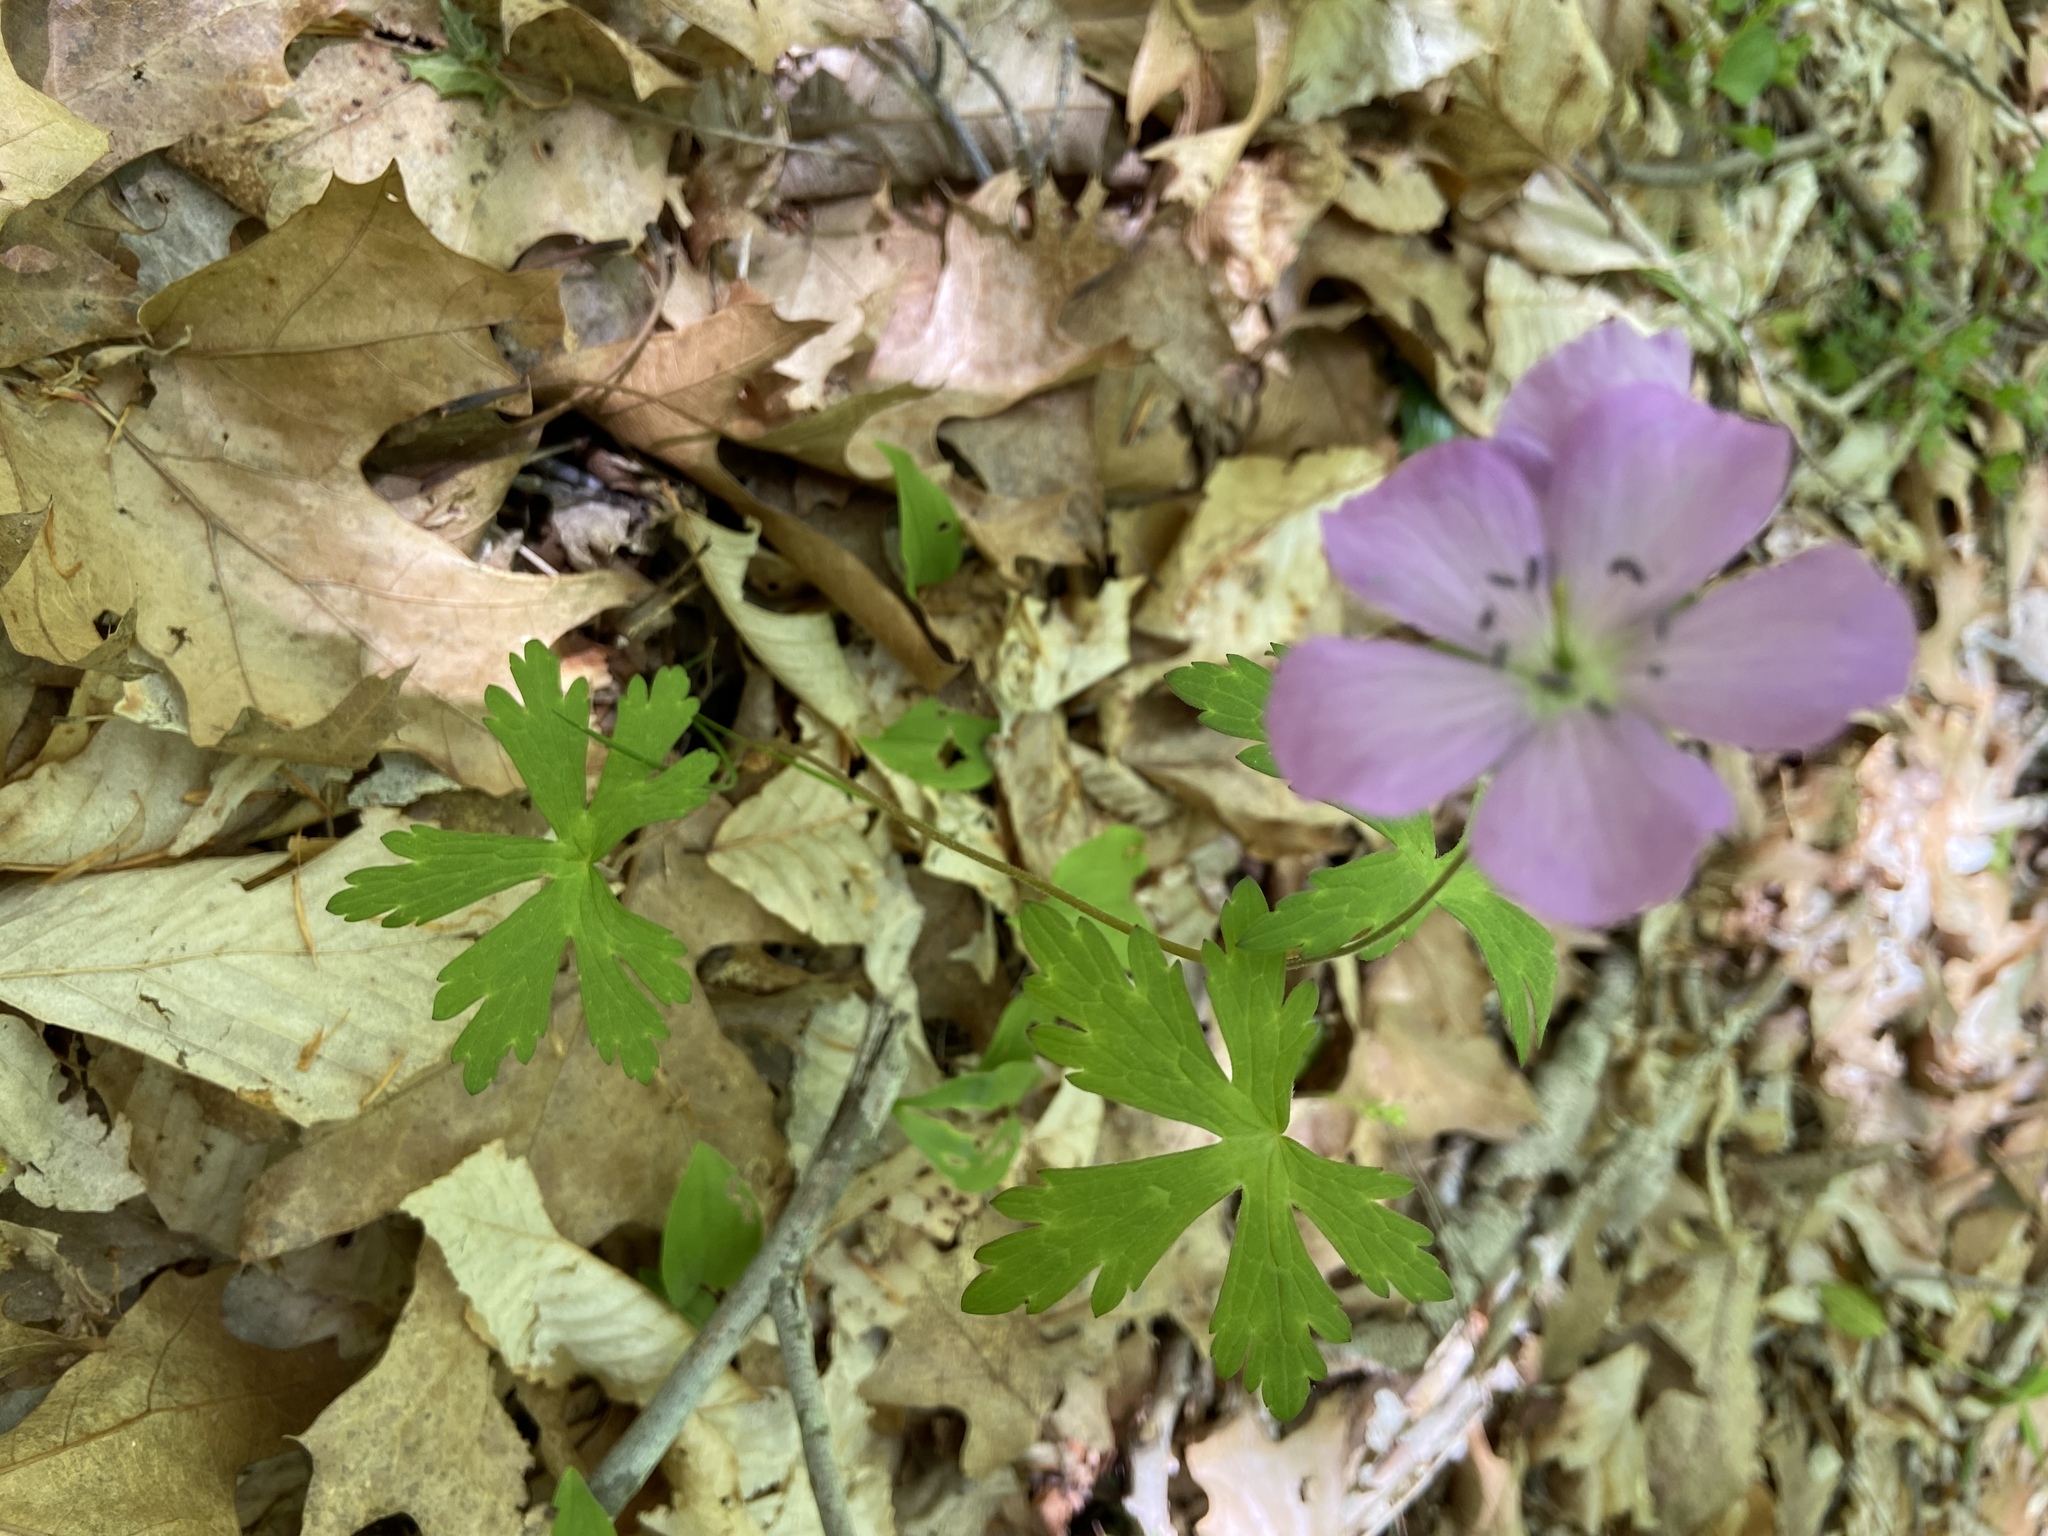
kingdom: Plantae
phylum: Tracheophyta
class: Magnoliopsida
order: Geraniales
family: Geraniaceae
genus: Geranium
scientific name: Geranium maculatum
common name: Spotted geranium
